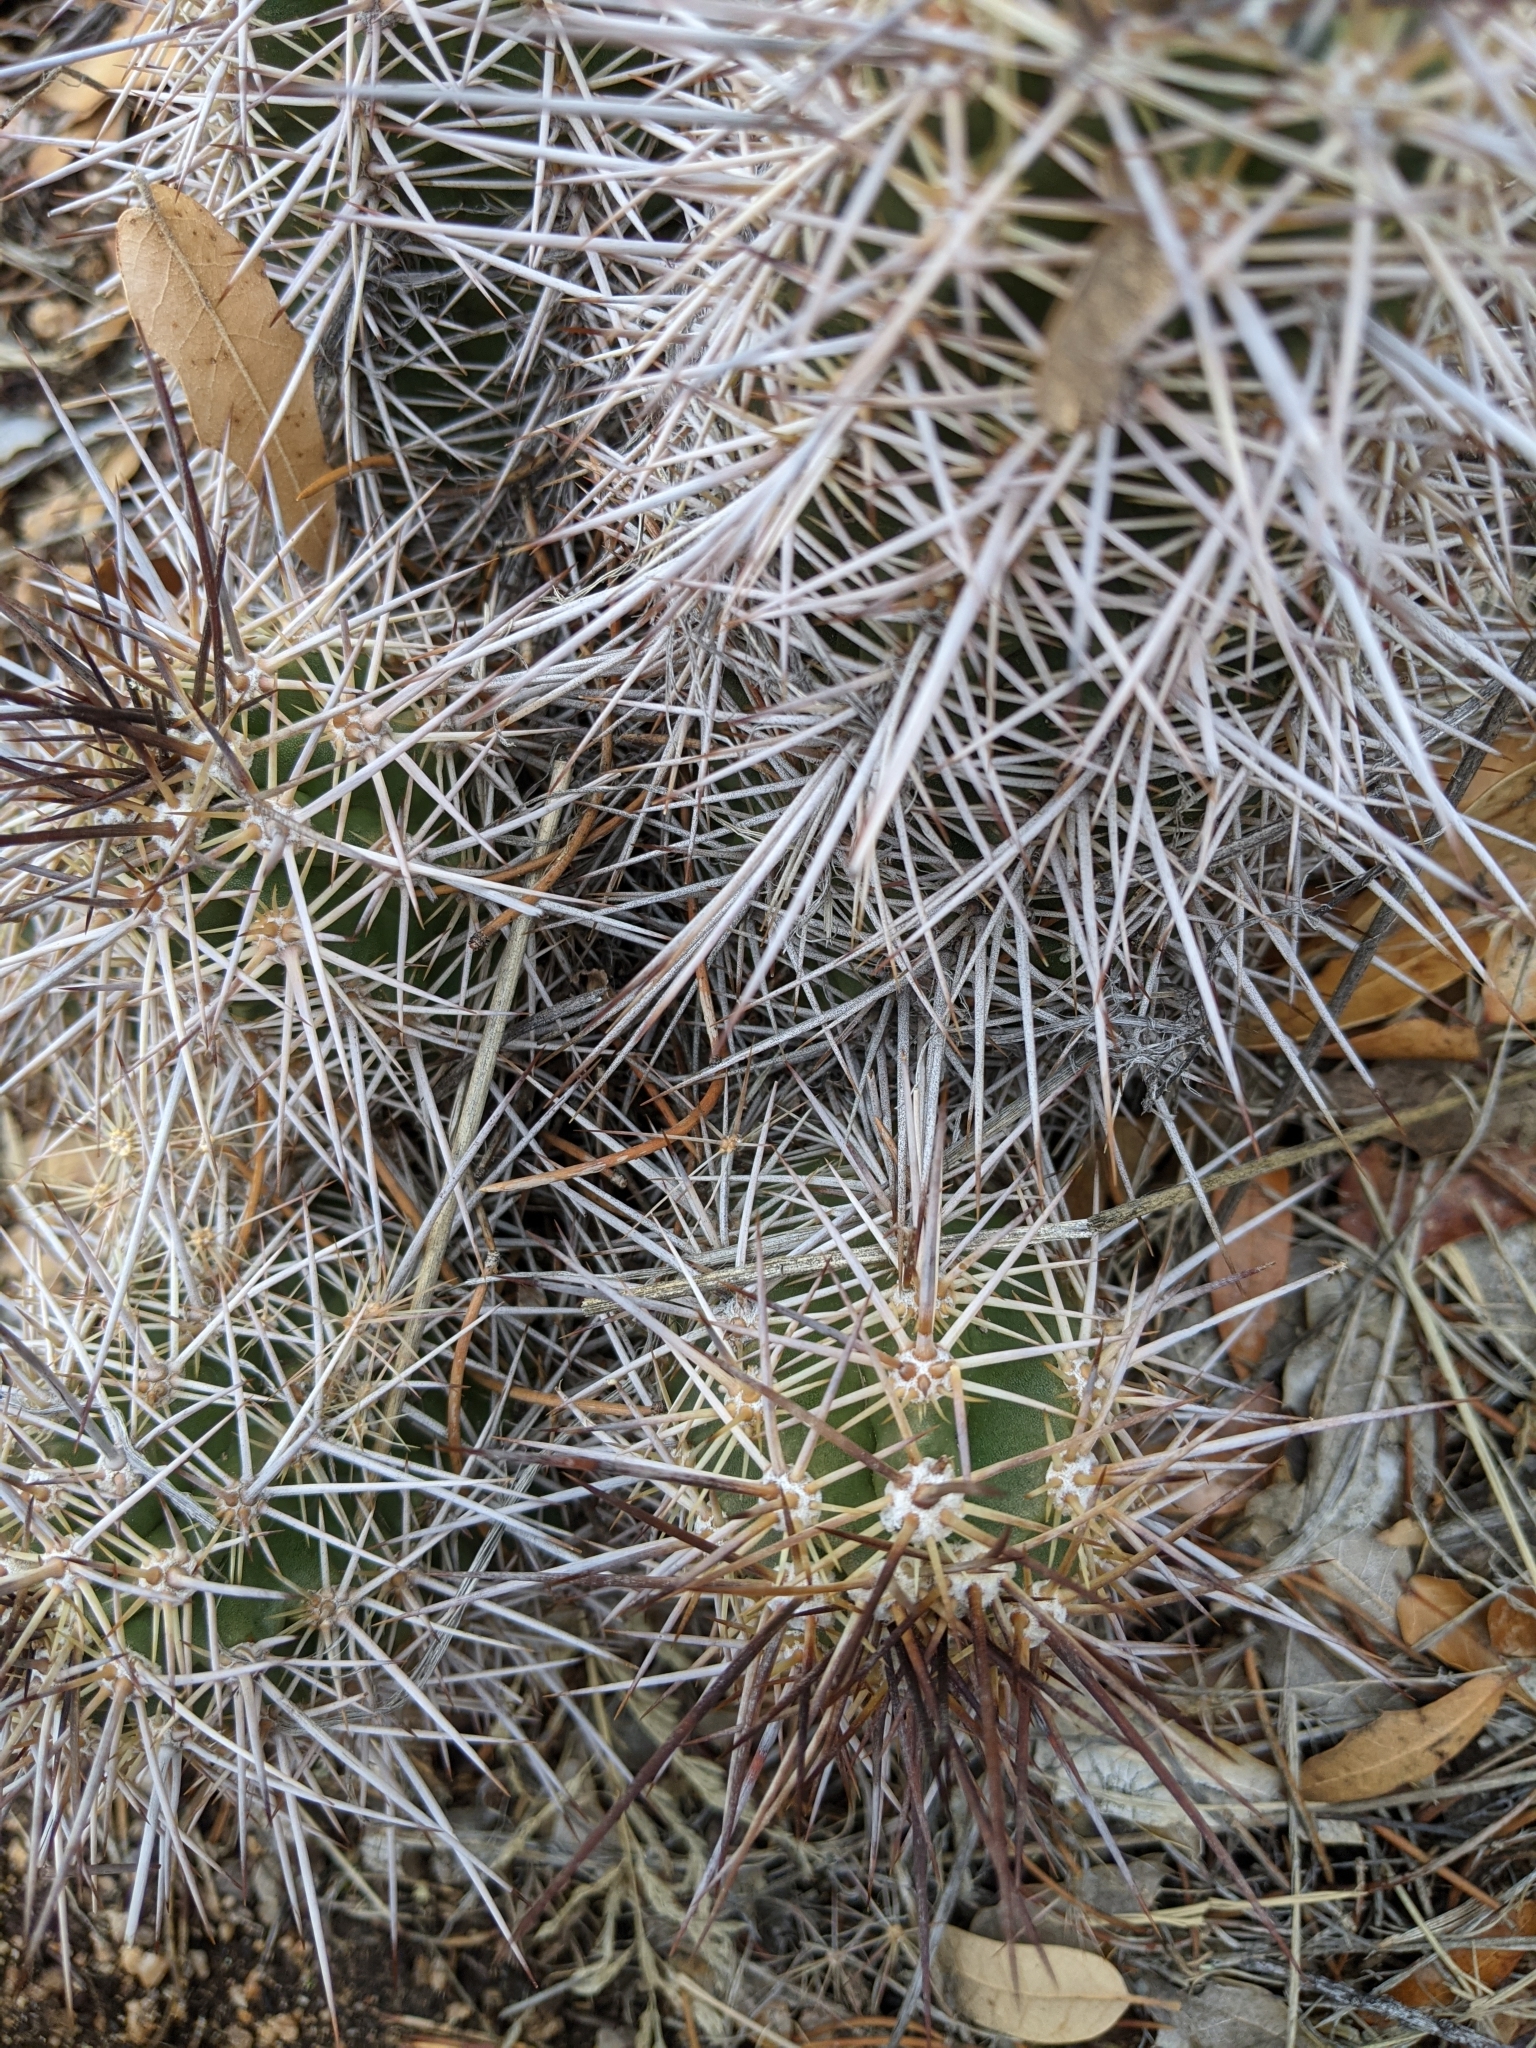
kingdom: Plantae
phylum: Tracheophyta
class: Magnoliopsida
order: Caryophyllales
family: Cactaceae
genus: Echinocereus
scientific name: Echinocereus bakeri
